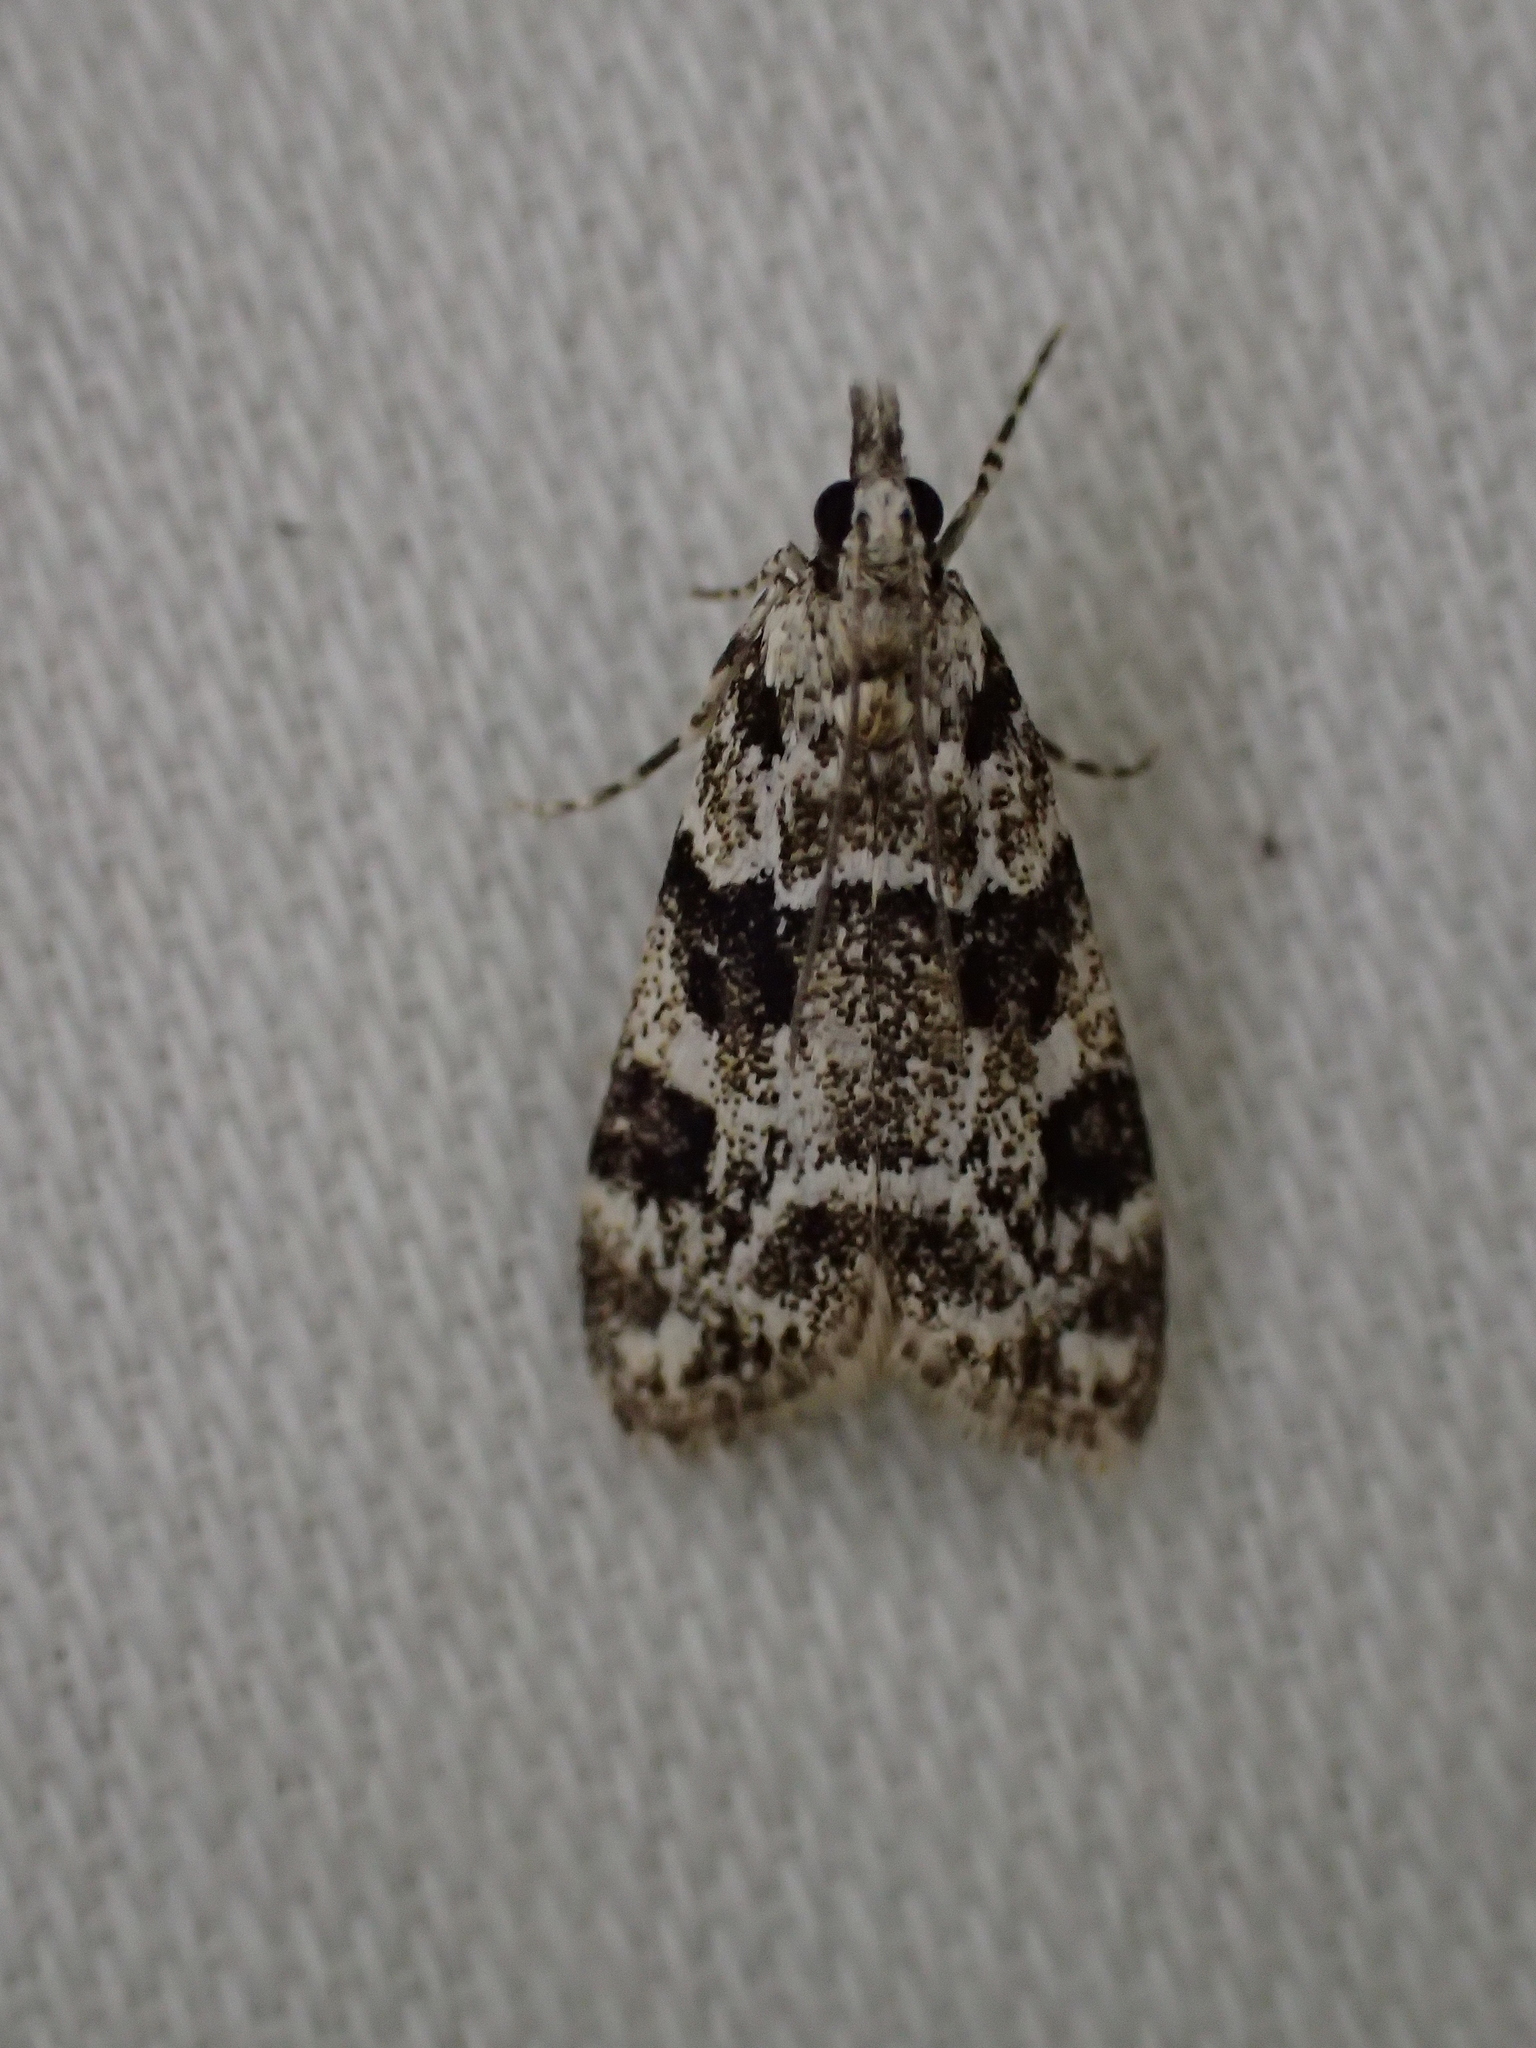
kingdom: Animalia
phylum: Arthropoda
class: Insecta
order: Lepidoptera
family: Crambidae
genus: Eudonia
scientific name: Eudonia delunella
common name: Pied grey
